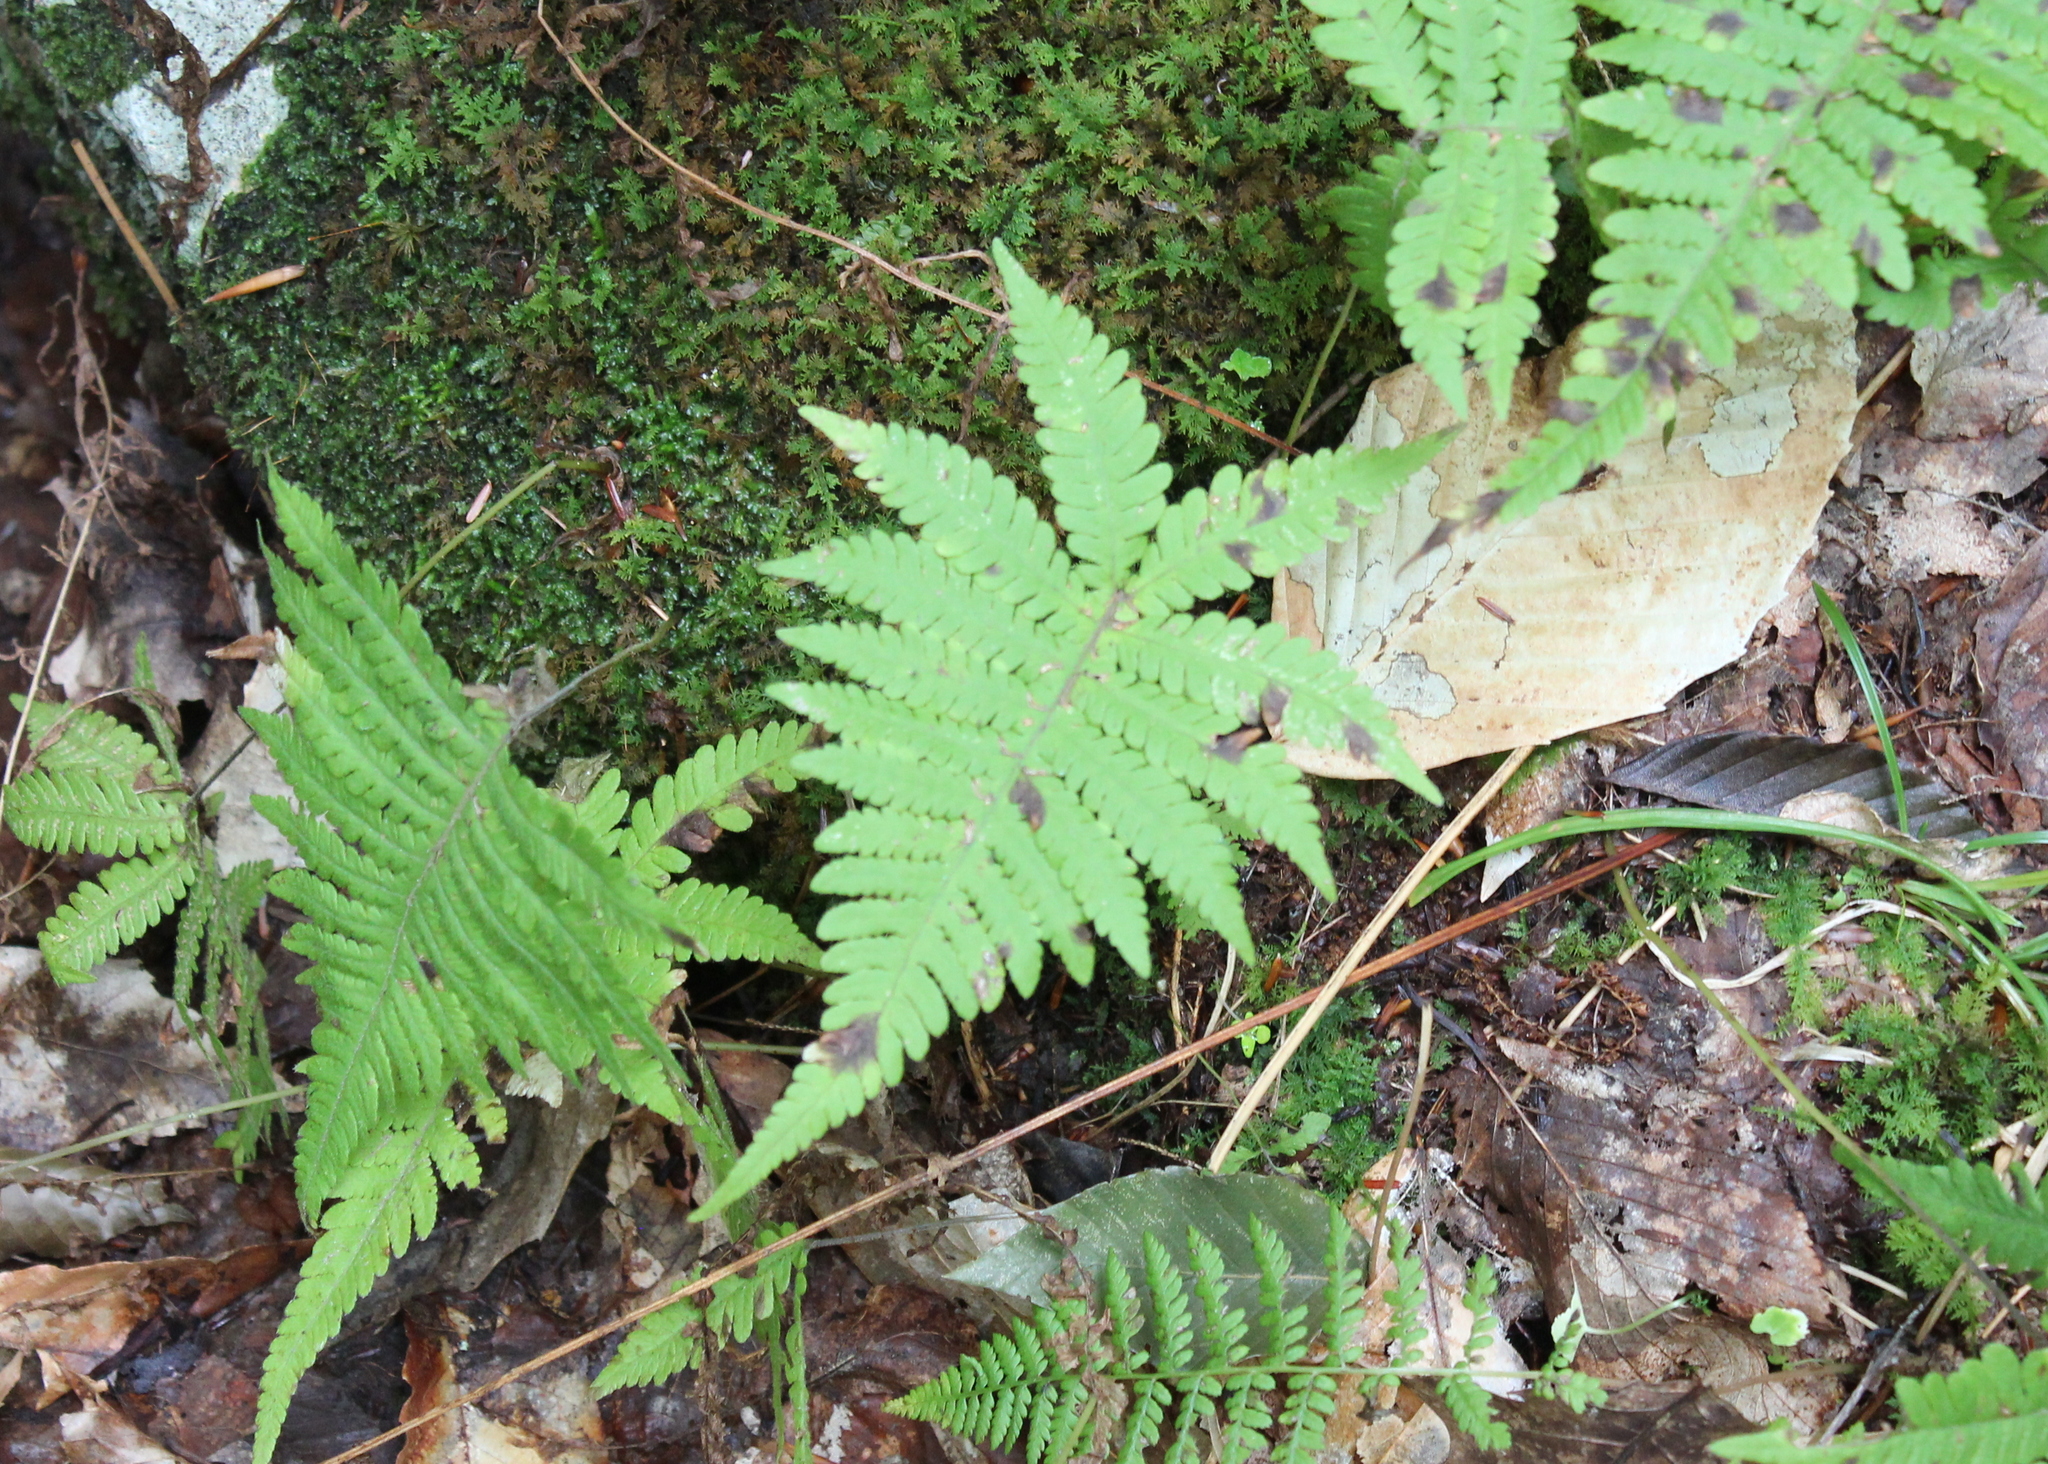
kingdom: Plantae
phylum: Tracheophyta
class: Polypodiopsida
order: Polypodiales
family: Thelypteridaceae
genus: Phegopteris
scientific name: Phegopteris connectilis
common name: Beech fern
